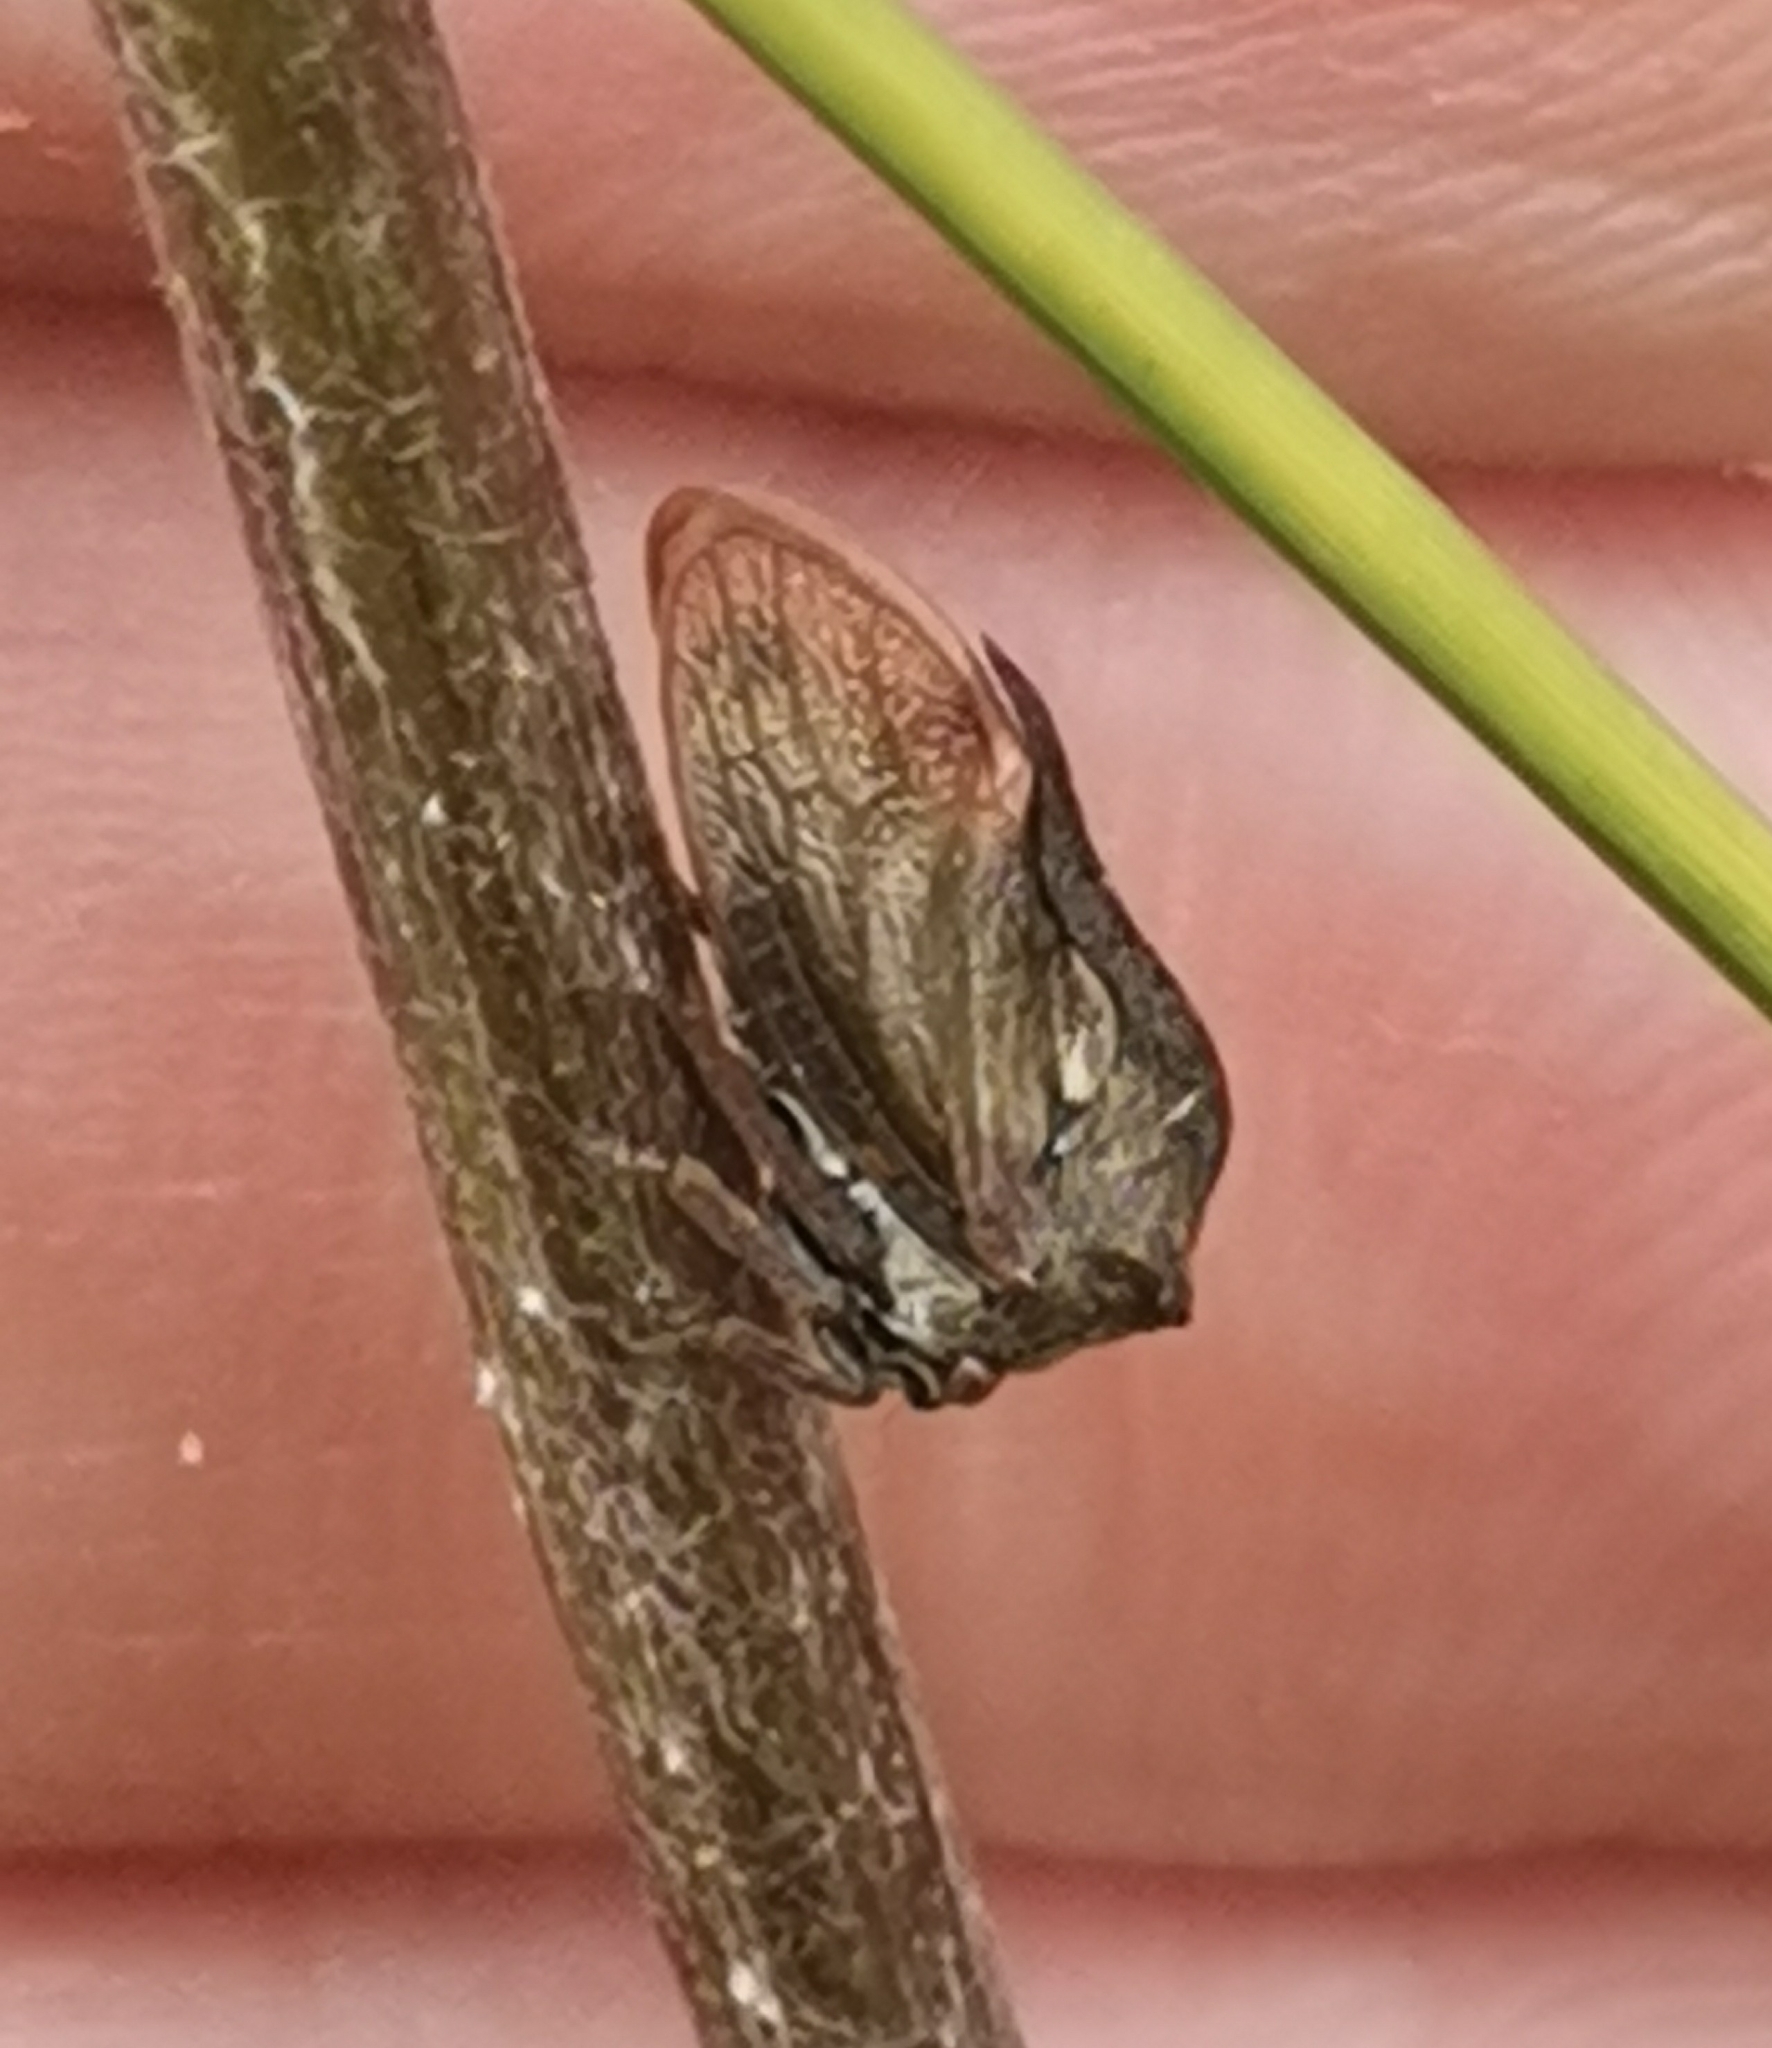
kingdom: Animalia
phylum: Arthropoda
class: Insecta
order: Hemiptera
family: Membracidae
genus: Centrotus
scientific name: Centrotus cornuta
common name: Treehopper
